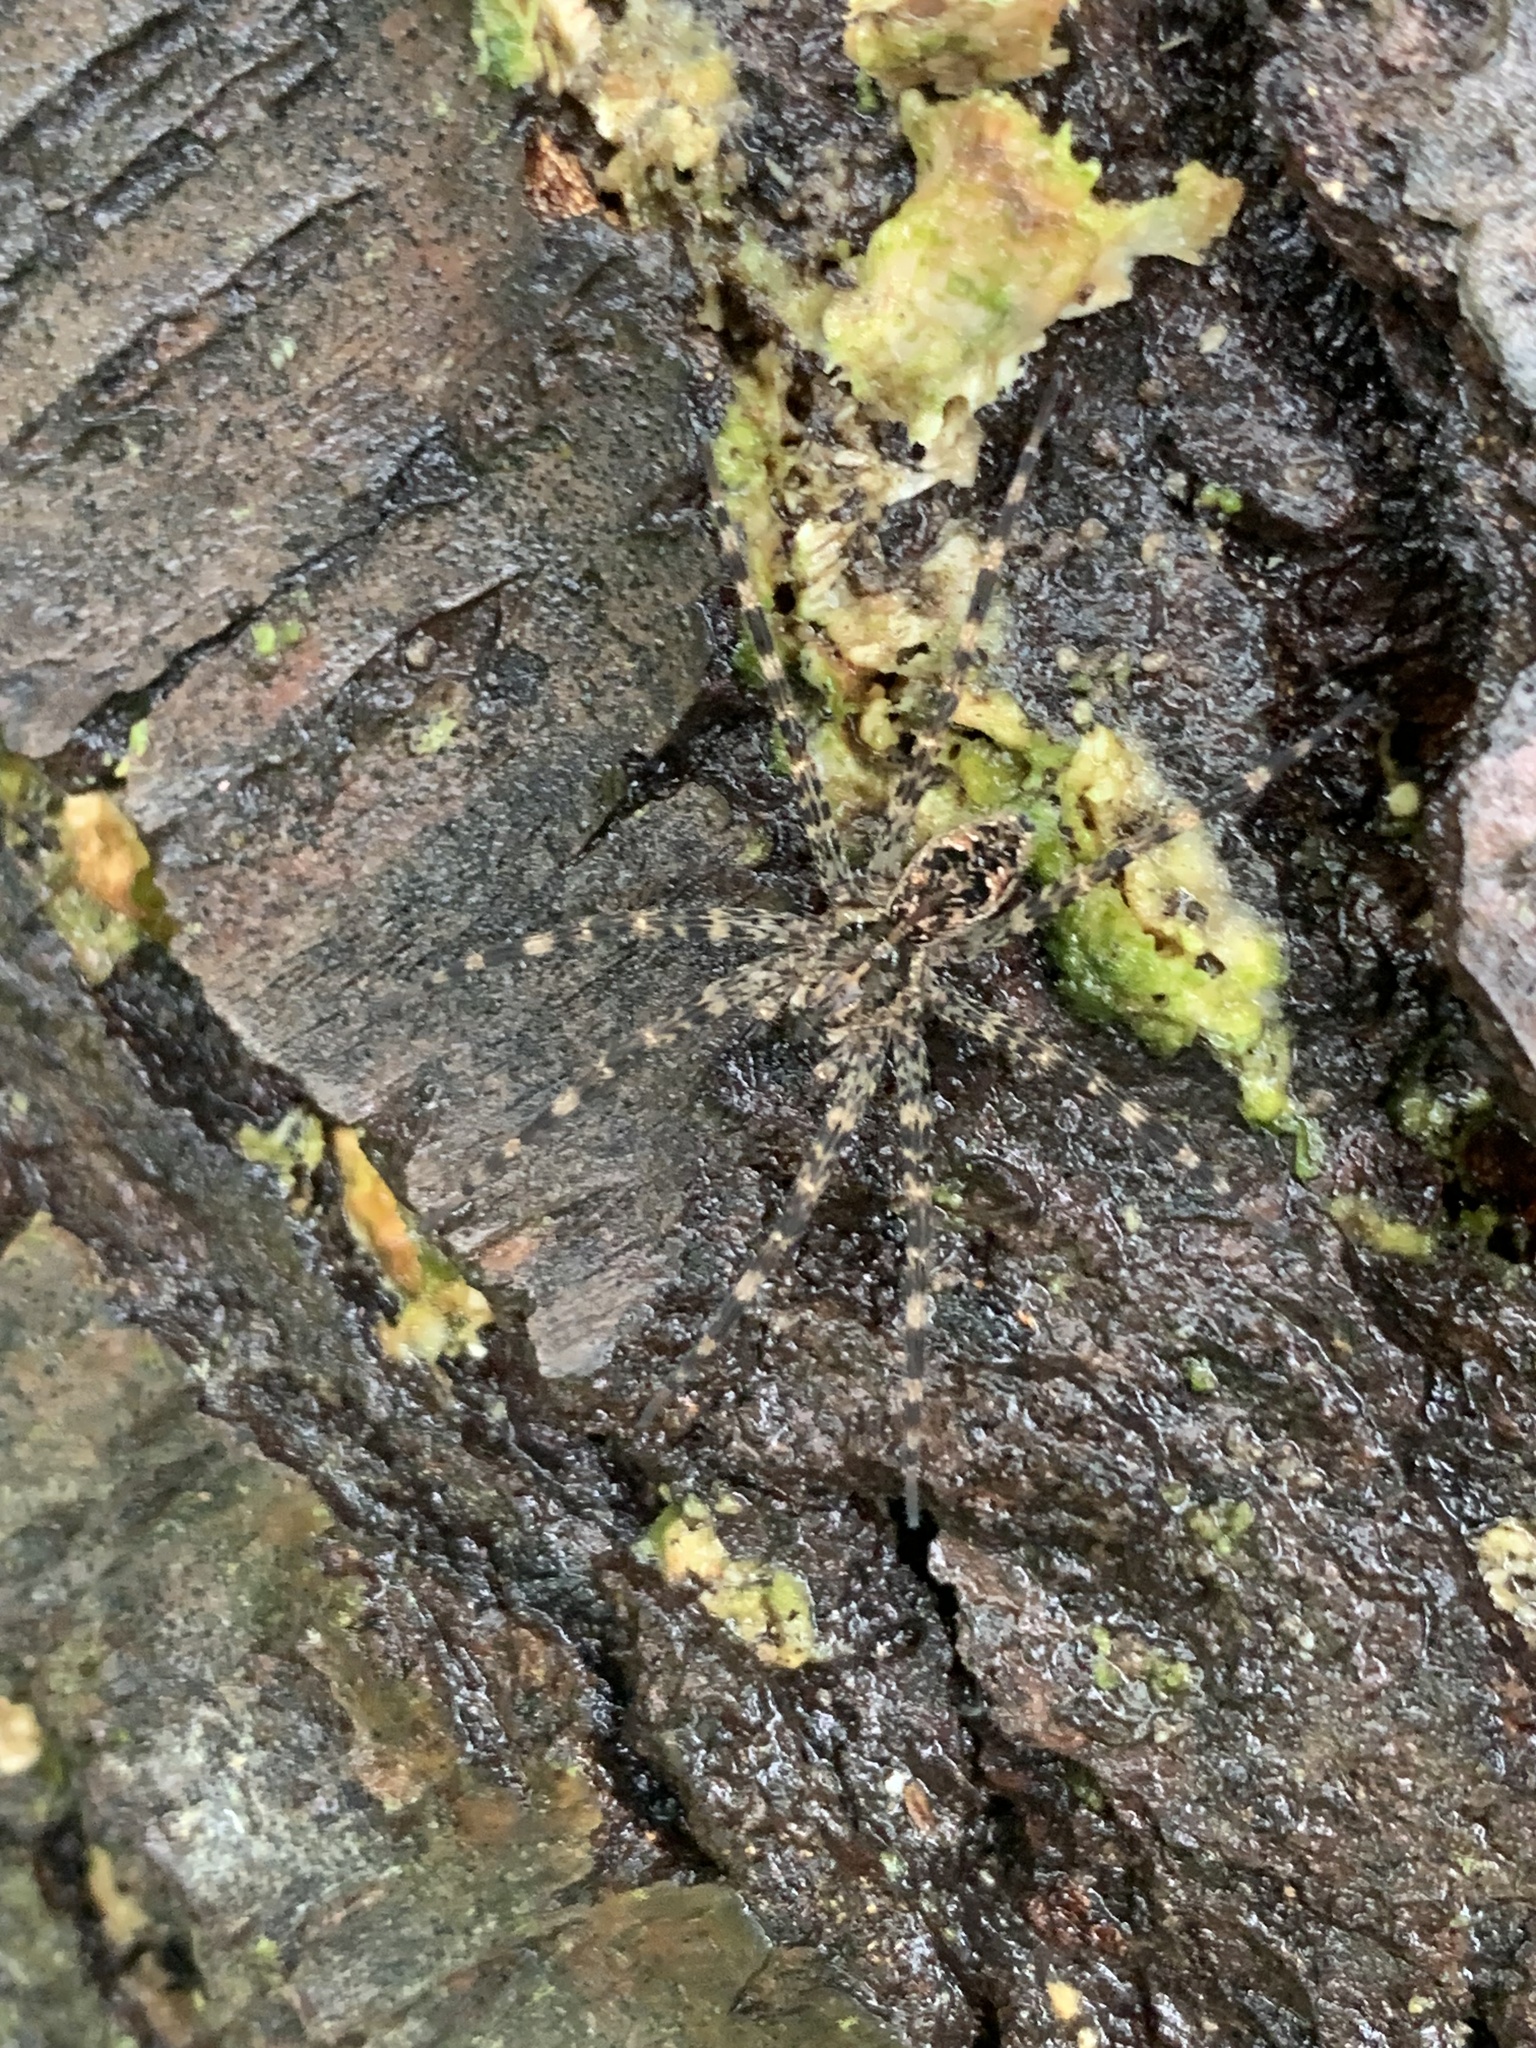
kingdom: Animalia
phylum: Arthropoda
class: Arachnida
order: Araneae
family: Pisauridae
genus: Dolomedes
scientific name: Dolomedes tenebrosus
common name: Dark fishing spider
